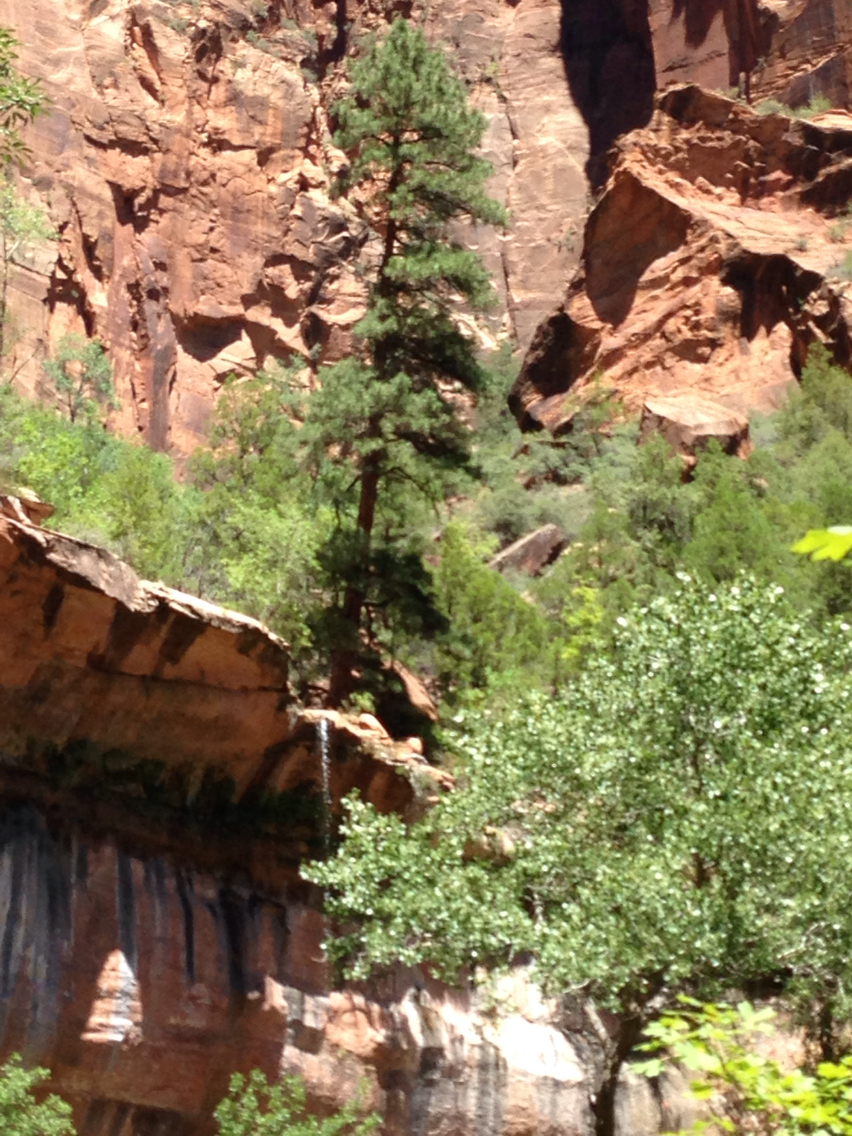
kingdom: Plantae
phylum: Tracheophyta
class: Pinopsida
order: Pinales
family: Pinaceae
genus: Pinus
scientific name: Pinus ponderosa
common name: Western yellow-pine
